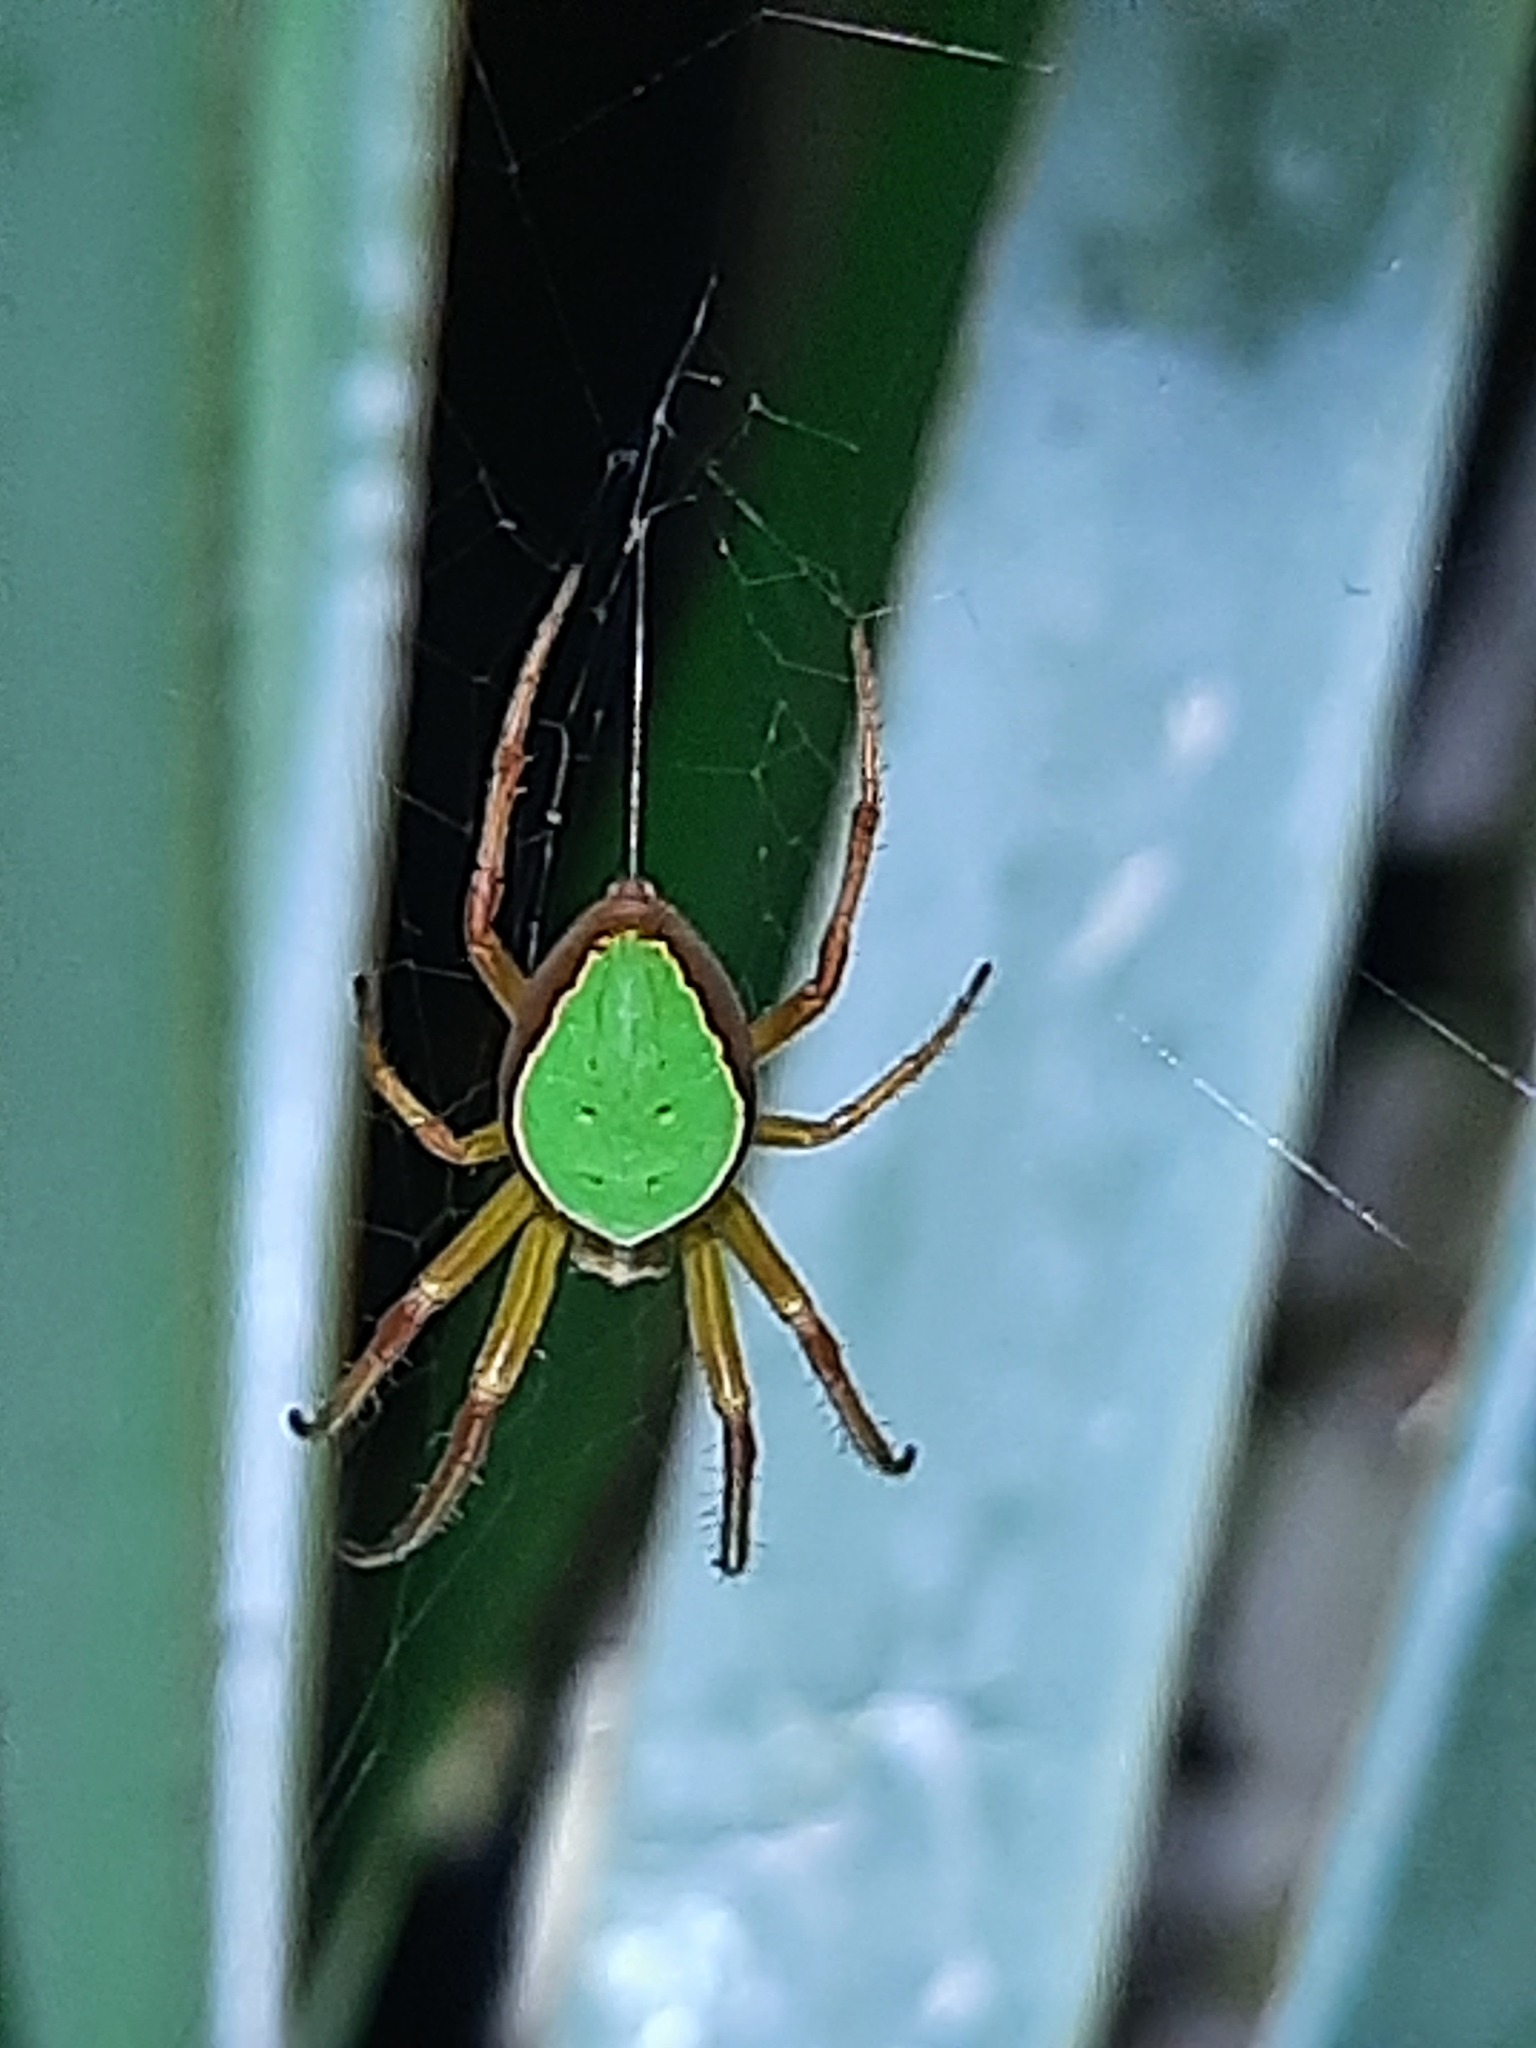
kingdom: Animalia
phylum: Arthropoda
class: Arachnida
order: Araneae
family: Araneidae
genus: Colaranea
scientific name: Colaranea viriditas
